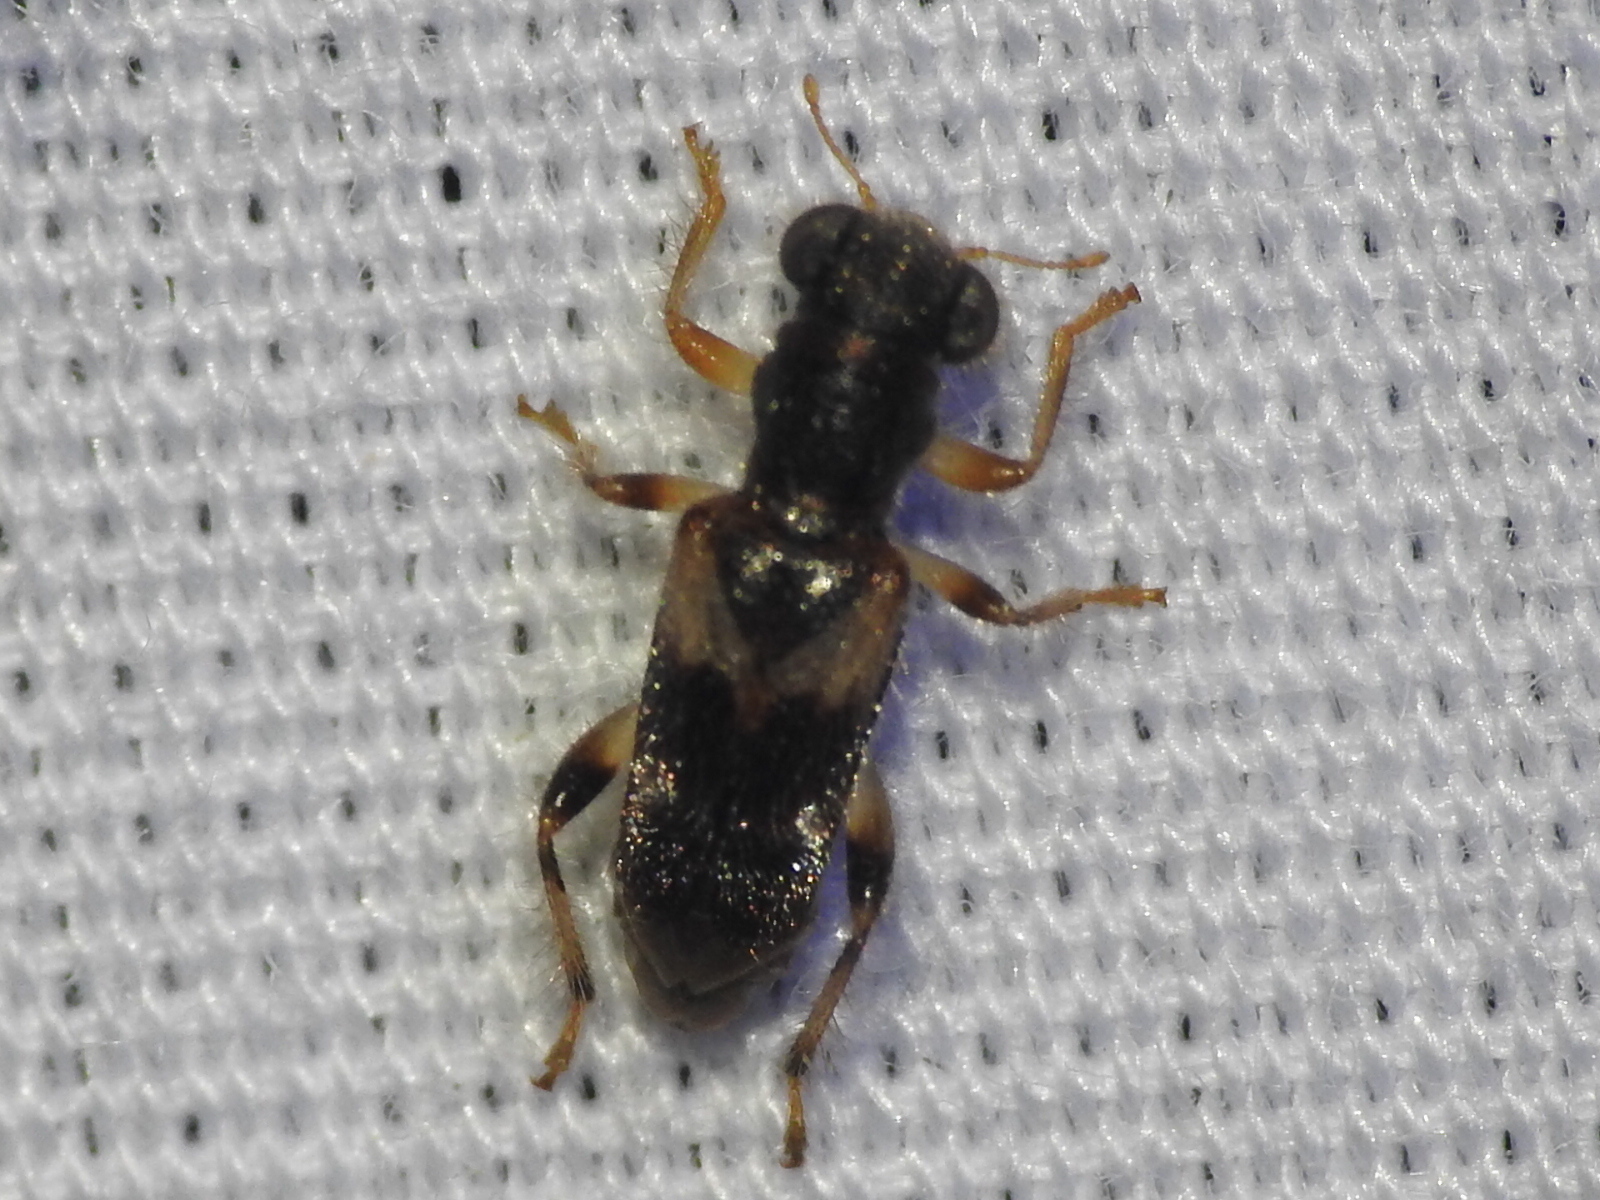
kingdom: Animalia
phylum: Arthropoda
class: Insecta
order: Coleoptera
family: Cleridae
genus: Phyllobaenus
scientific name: Phyllobaenus obscurus
